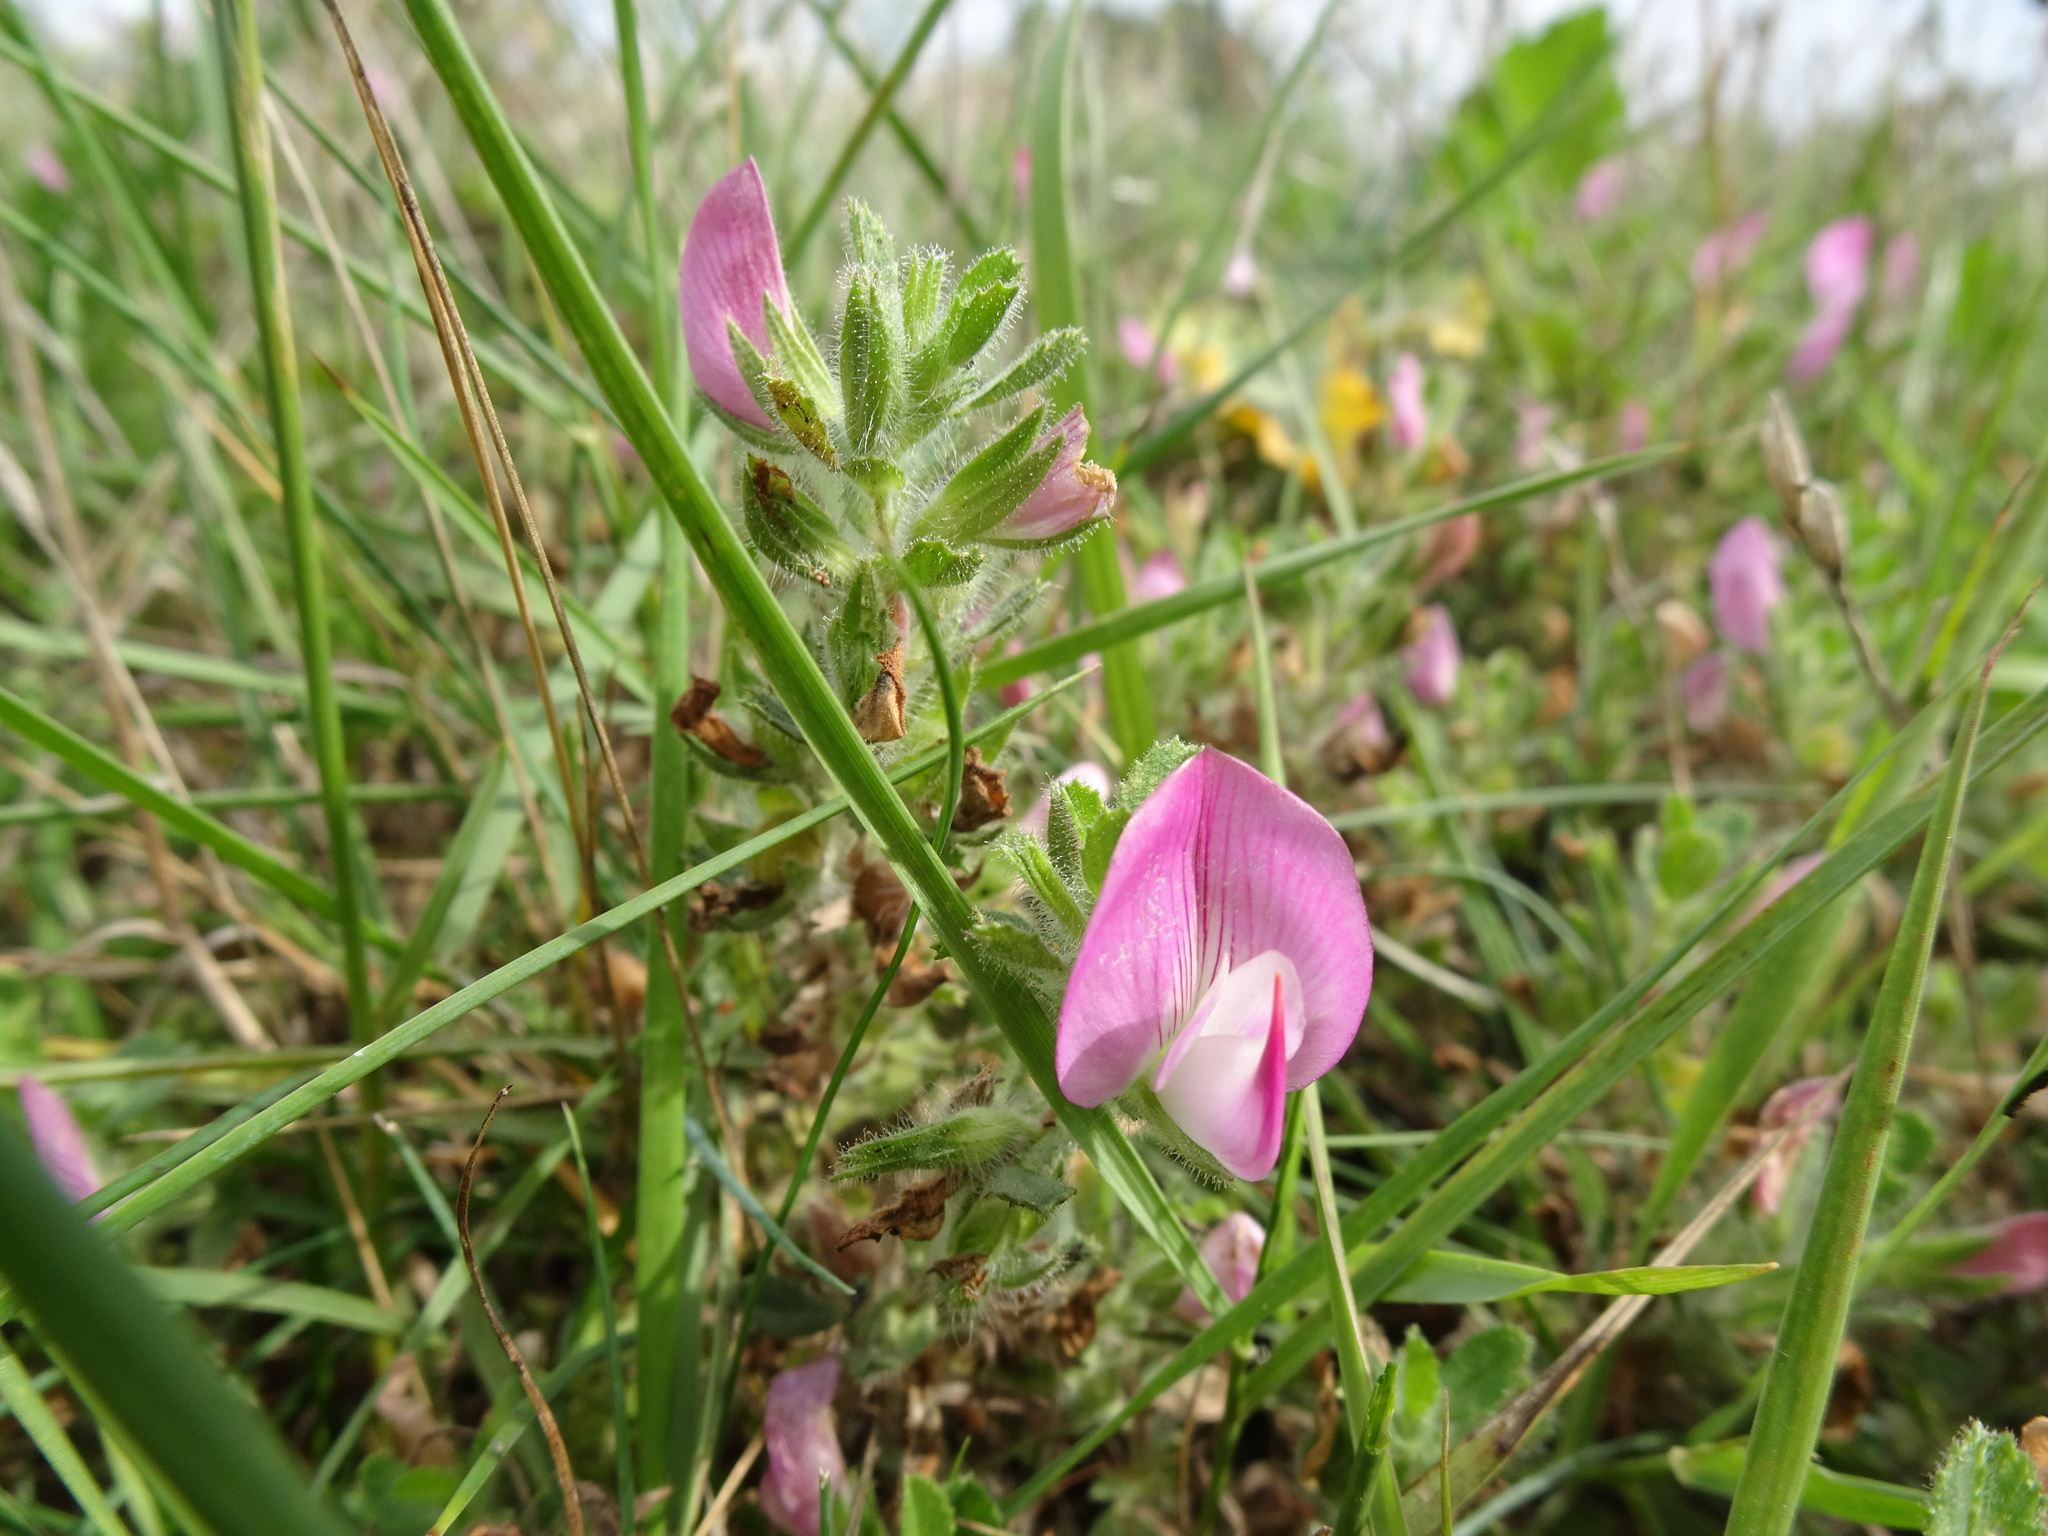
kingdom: Plantae
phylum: Tracheophyta
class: Magnoliopsida
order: Fabales
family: Fabaceae
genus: Ononis
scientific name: Ononis spinosa
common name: Spiny restharrow
